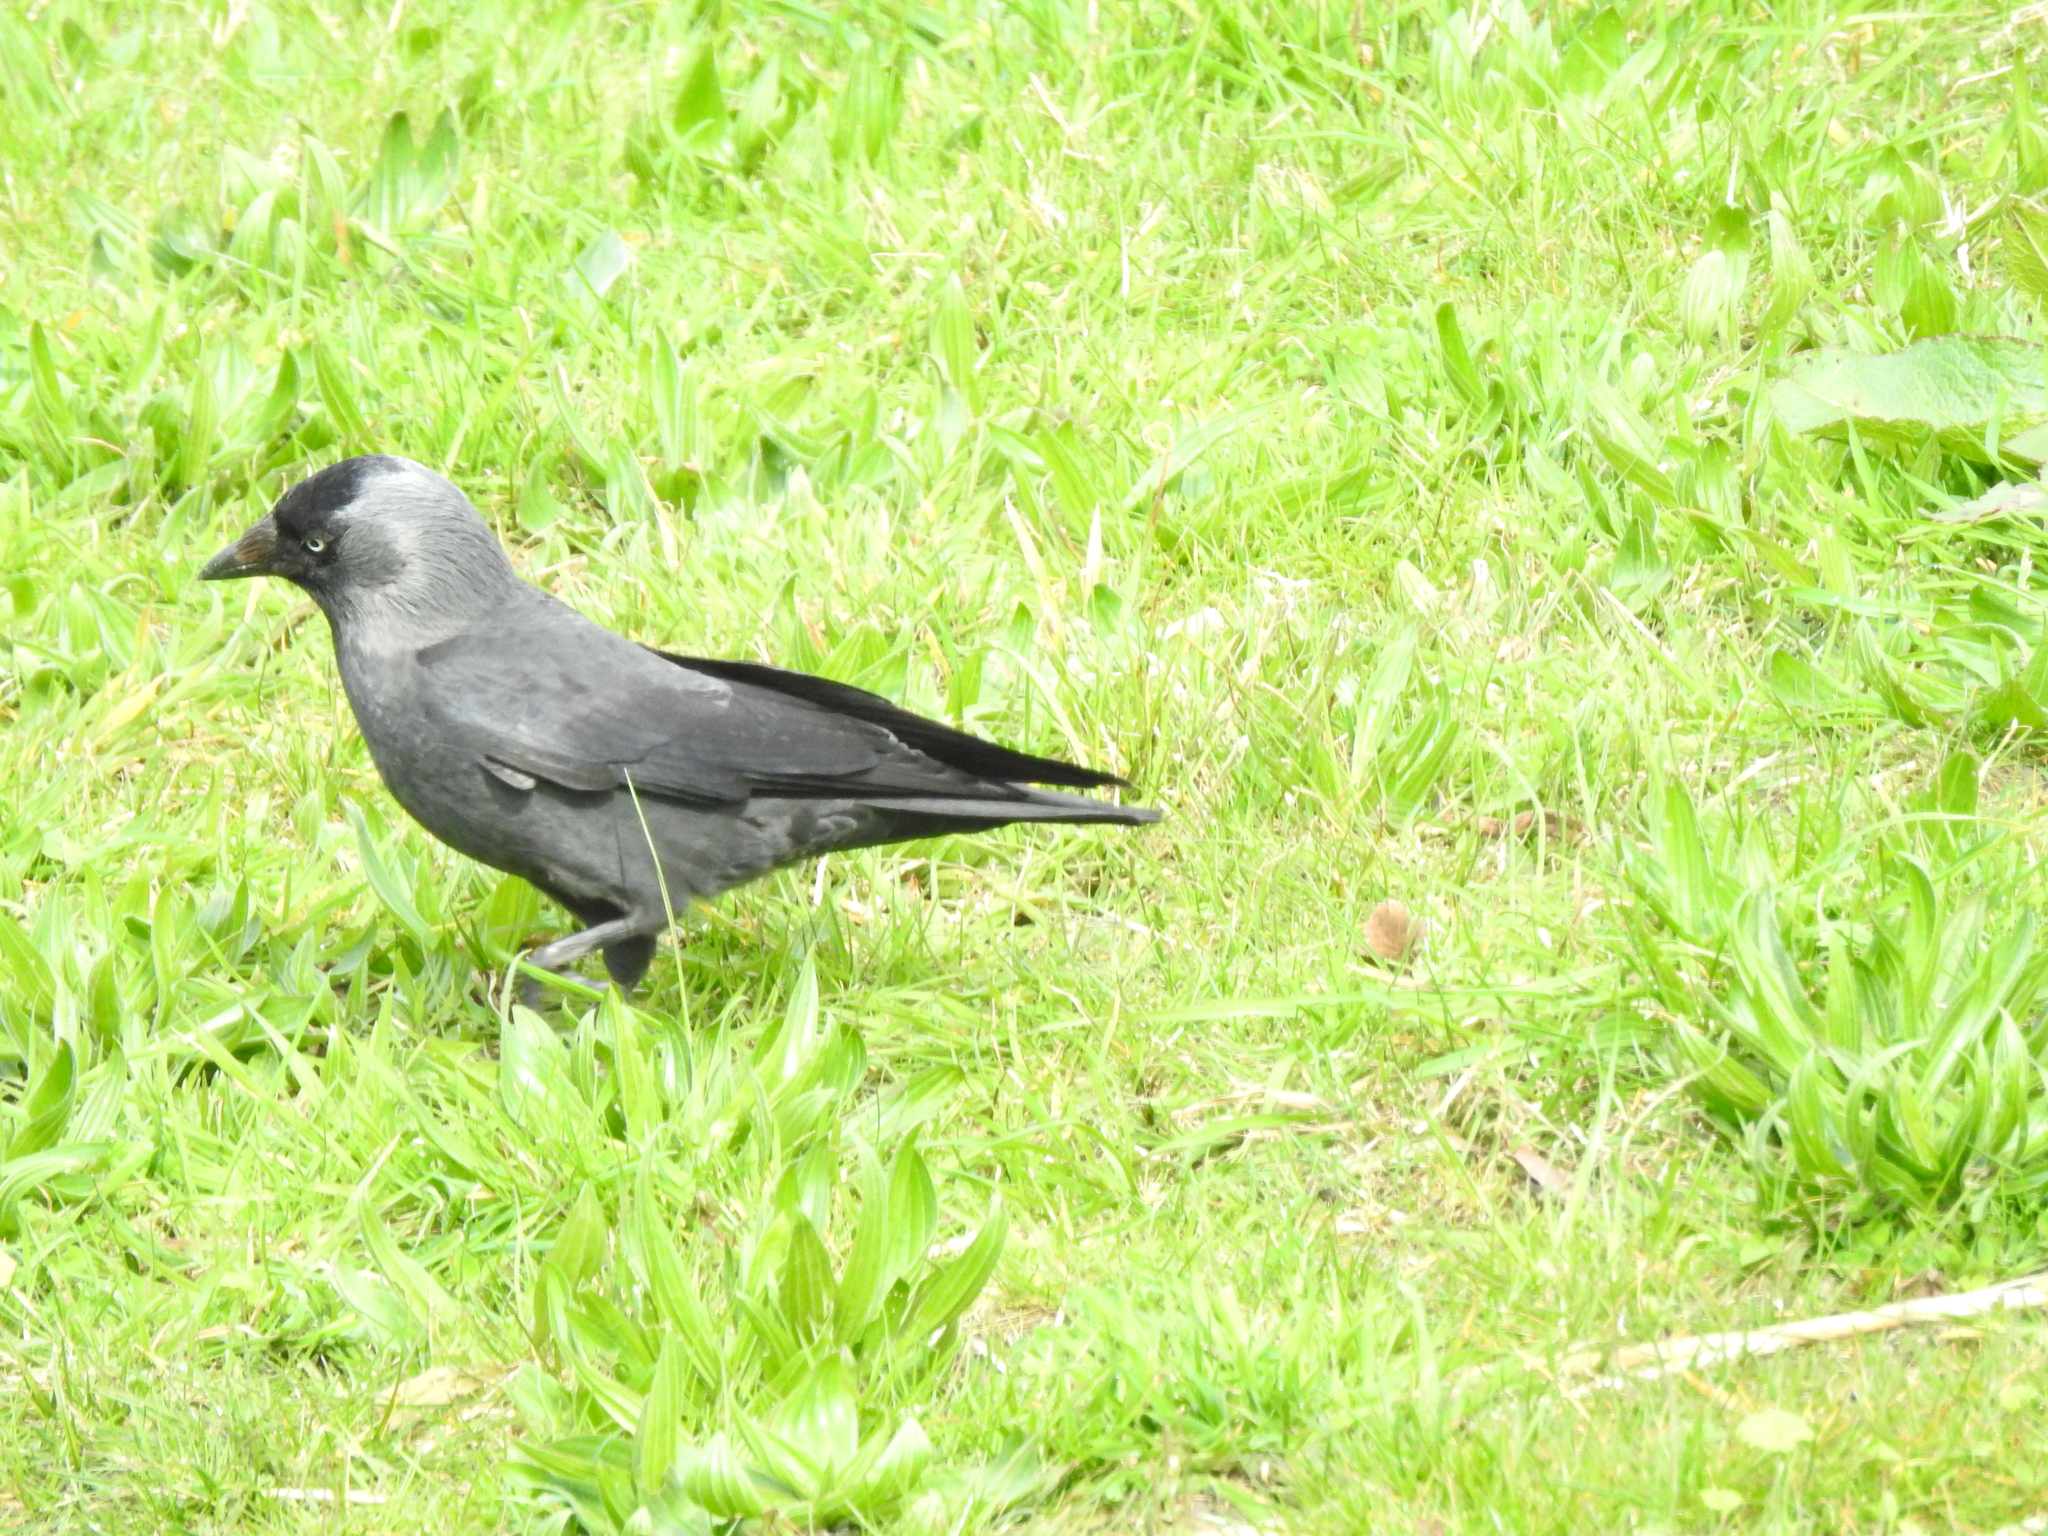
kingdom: Animalia
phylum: Chordata
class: Aves
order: Passeriformes
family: Corvidae
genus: Coloeus
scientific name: Coloeus monedula
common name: Western jackdaw
